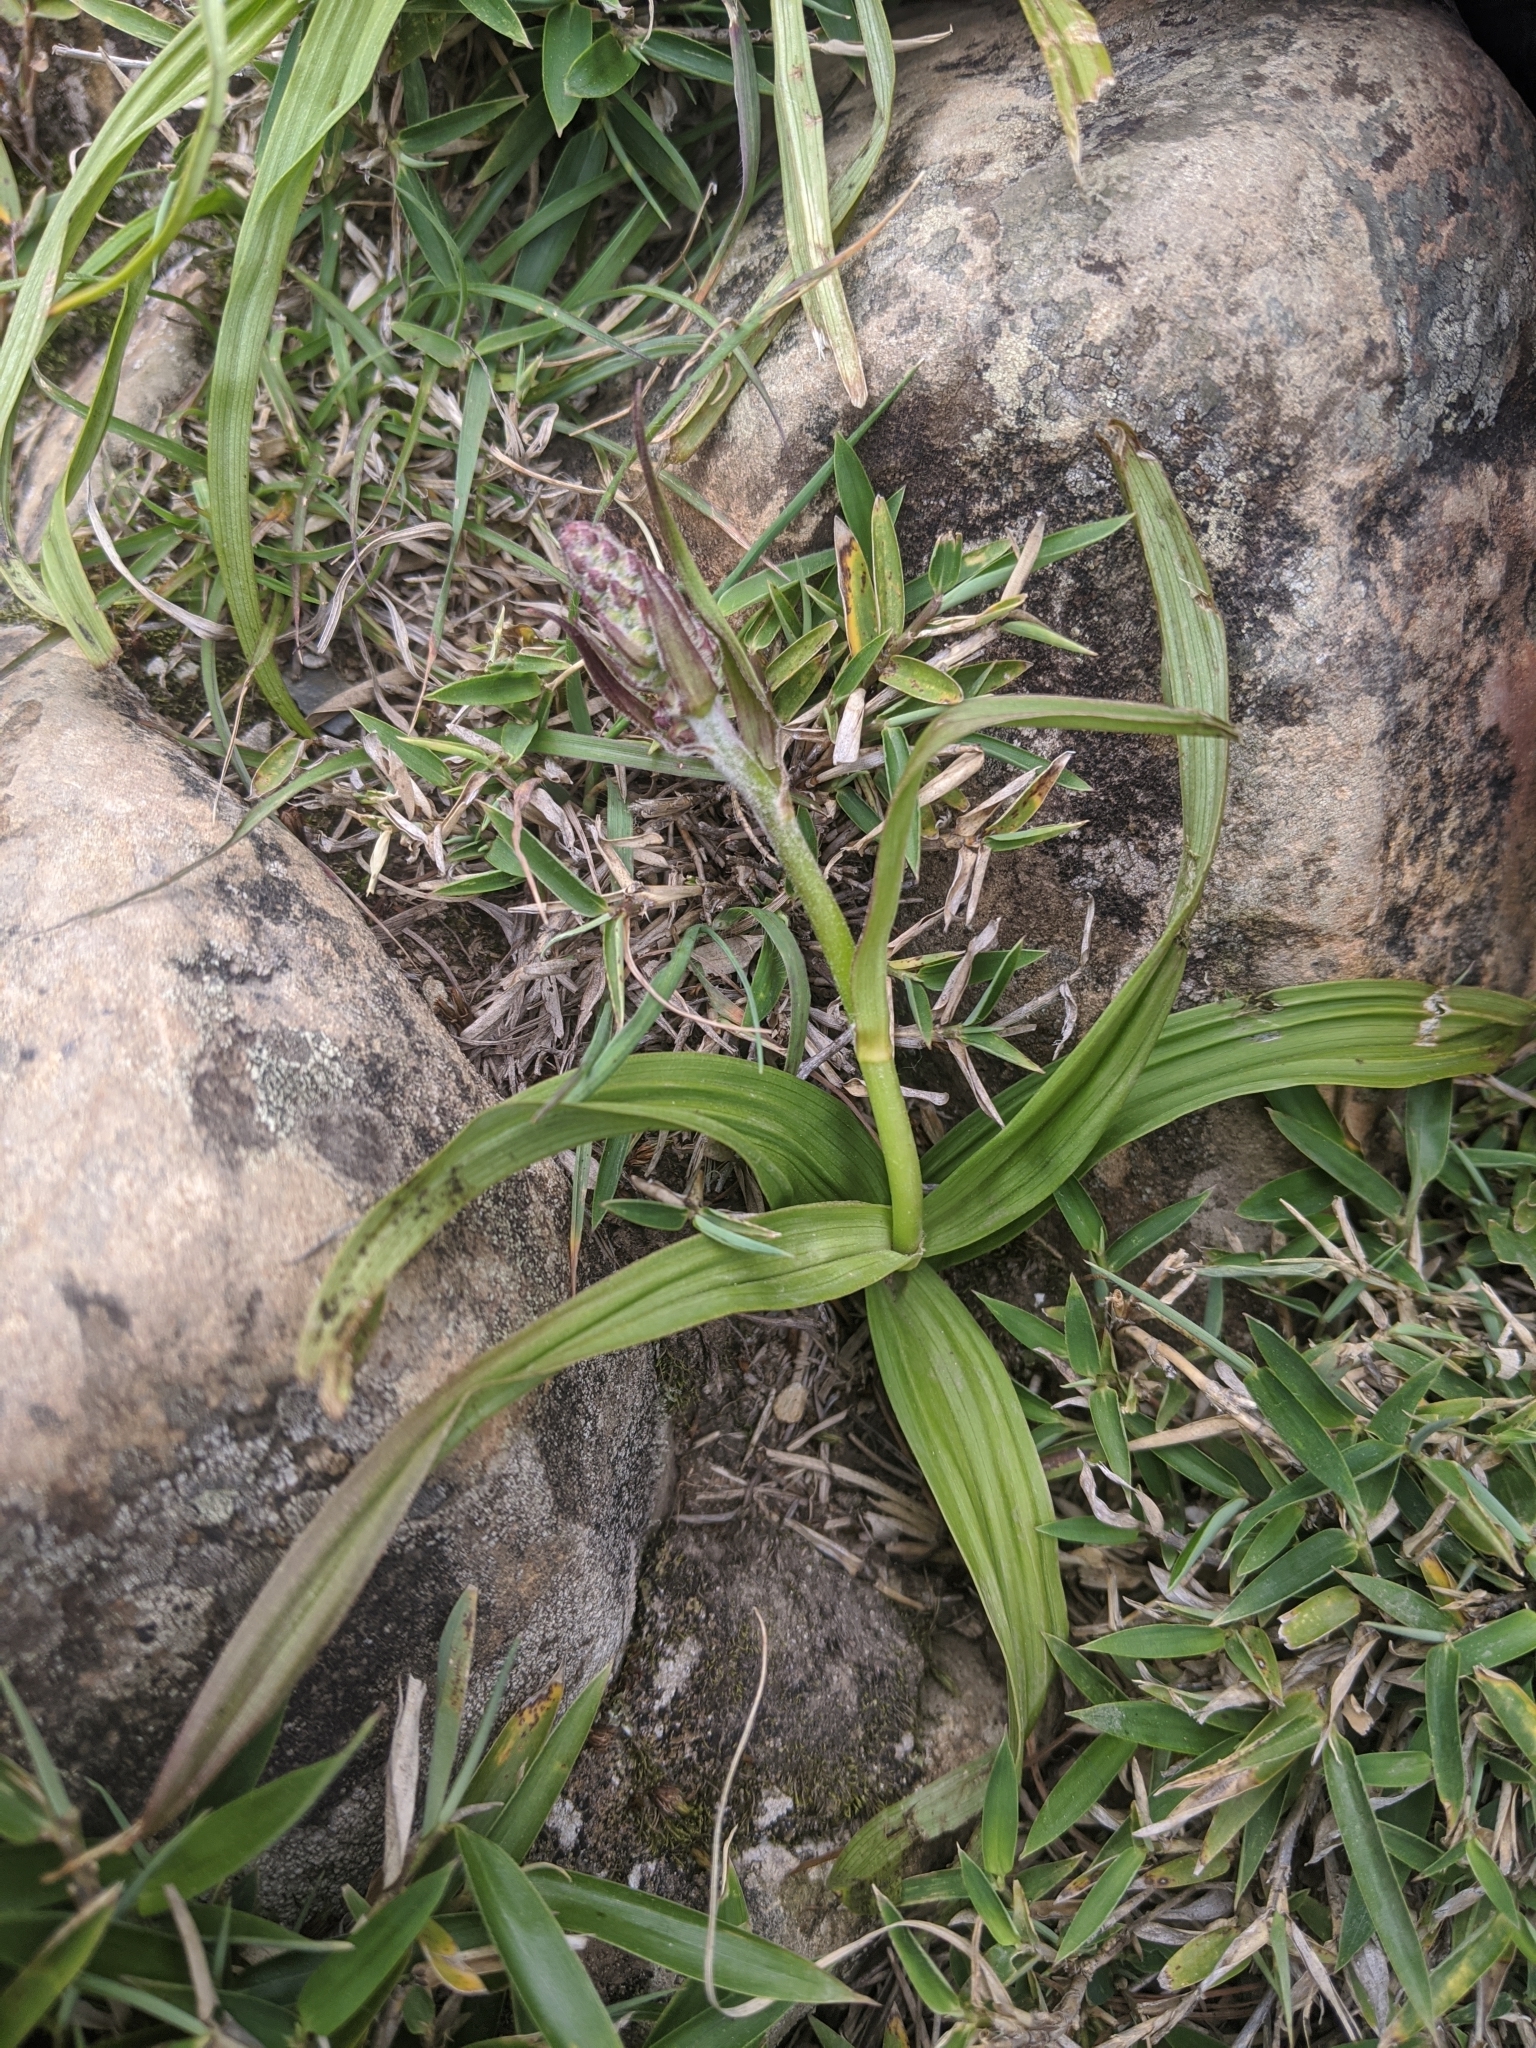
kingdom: Plantae
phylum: Tracheophyta
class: Liliopsida
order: Liliales
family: Melanthiaceae
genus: Veratrum
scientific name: Veratrum formosanum
